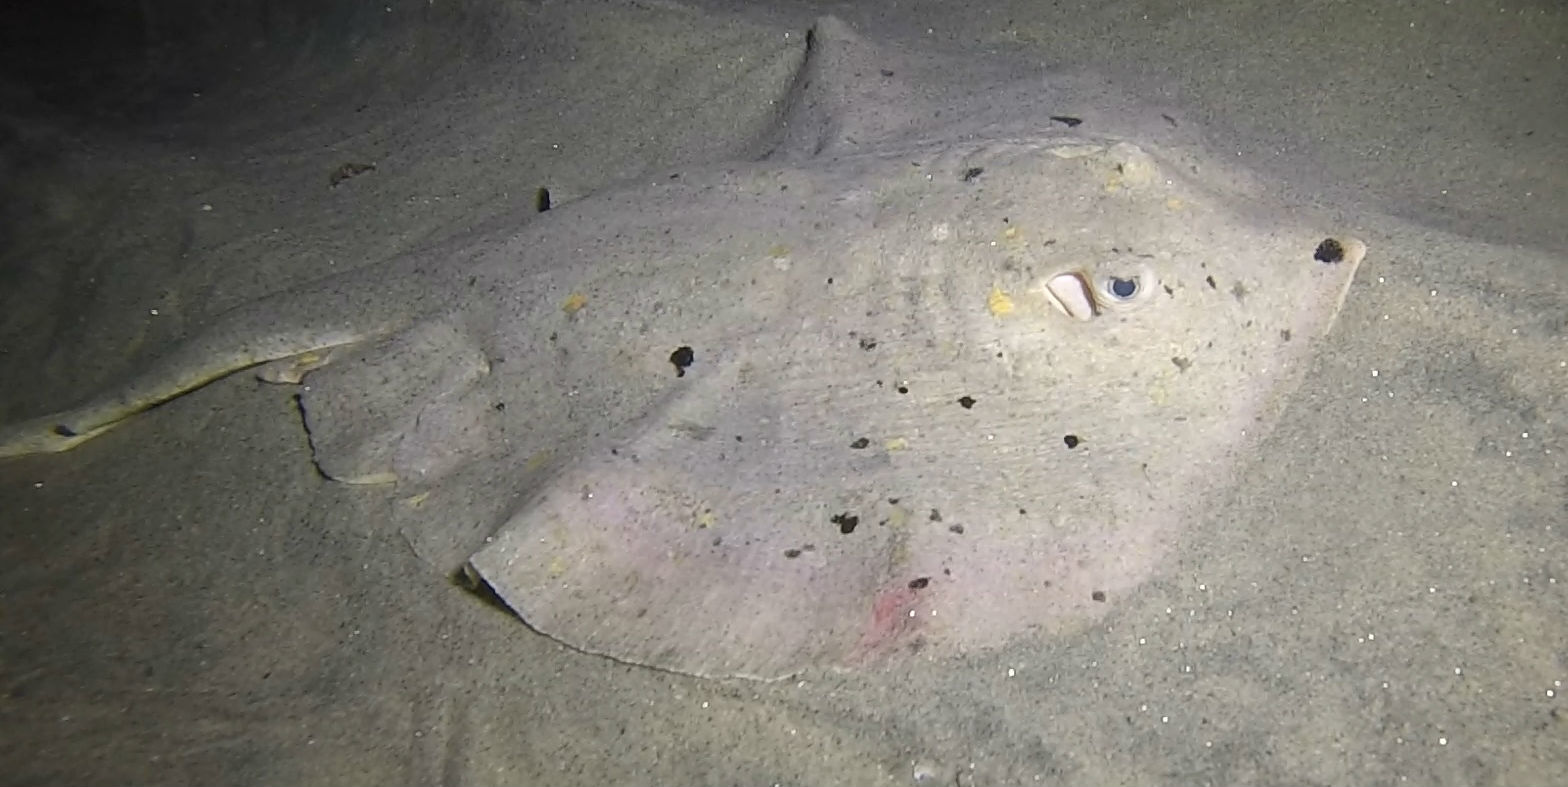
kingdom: Animalia
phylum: Chordata
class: Elasmobranchii
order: Myliobatiformes
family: Urolophidae
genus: Urolophus
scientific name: Urolophus halleri
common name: Round stingray
